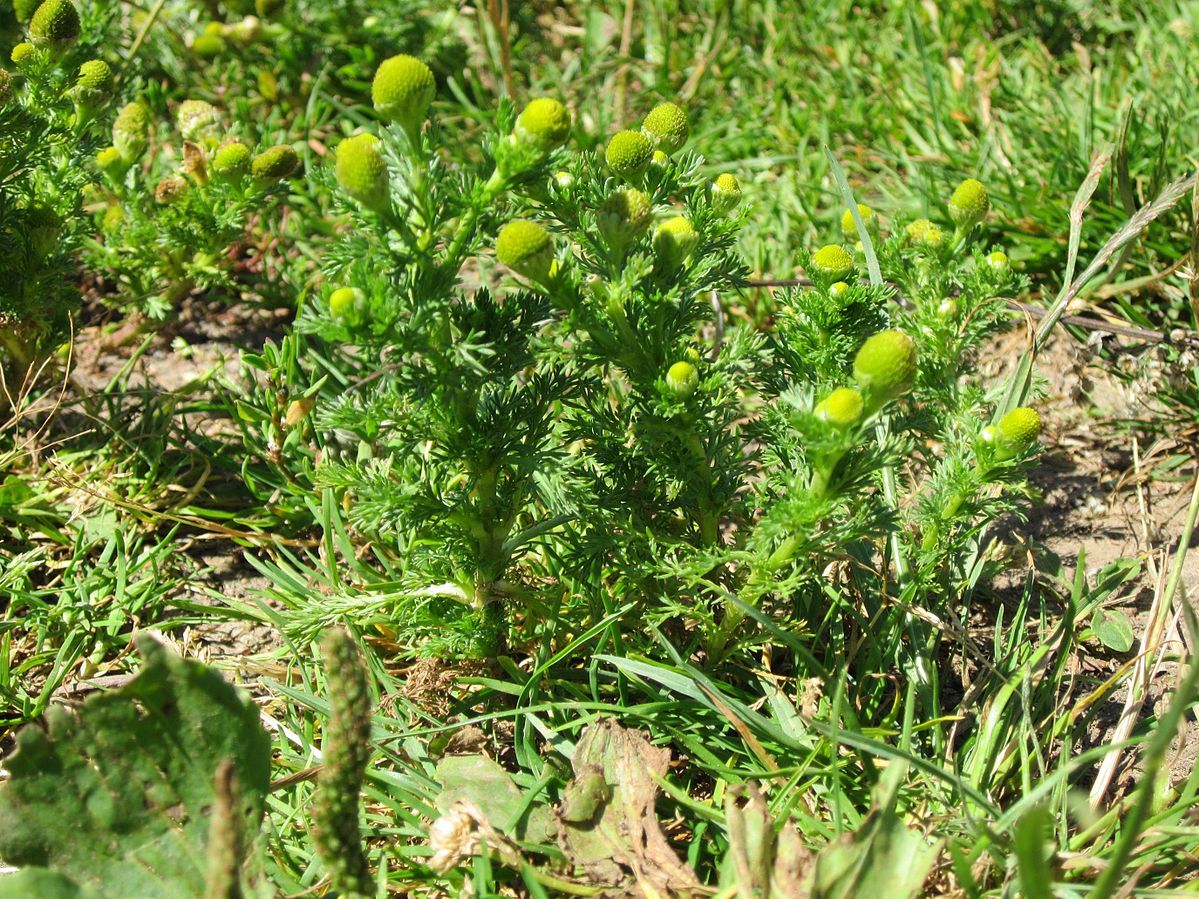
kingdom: Plantae
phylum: Tracheophyta
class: Magnoliopsida
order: Asterales
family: Asteraceae
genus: Matricaria
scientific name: Matricaria discoidea
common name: Disc mayweed
